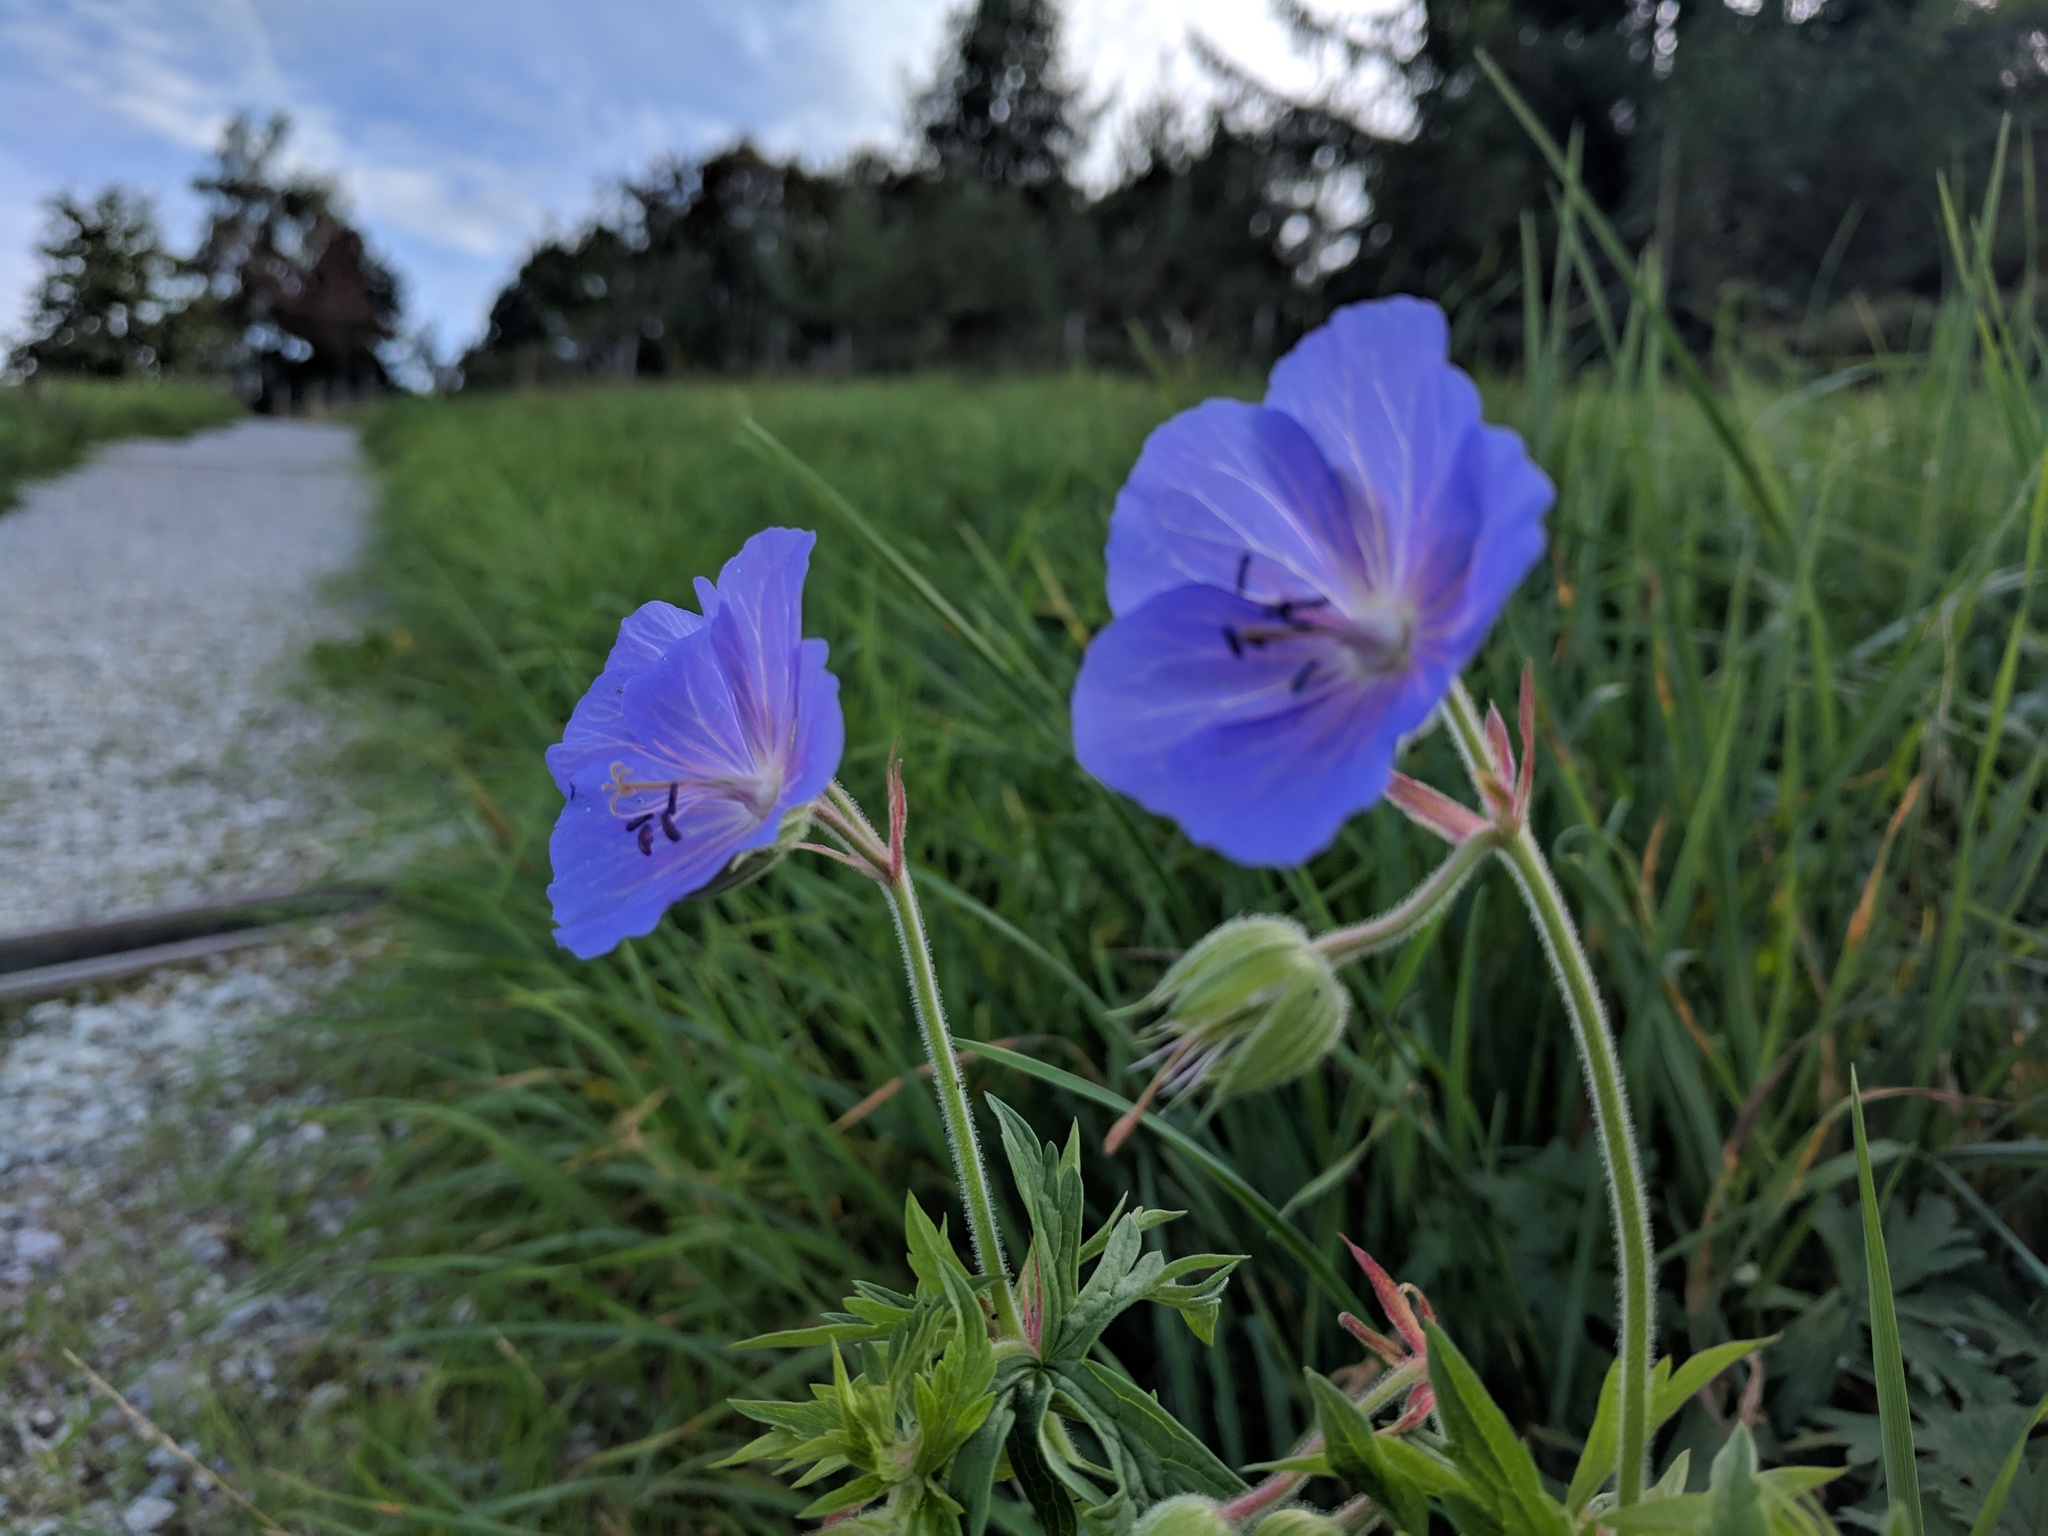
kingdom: Plantae
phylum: Tracheophyta
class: Magnoliopsida
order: Geraniales
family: Geraniaceae
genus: Geranium
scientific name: Geranium pratense
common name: Meadow crane's-bill
